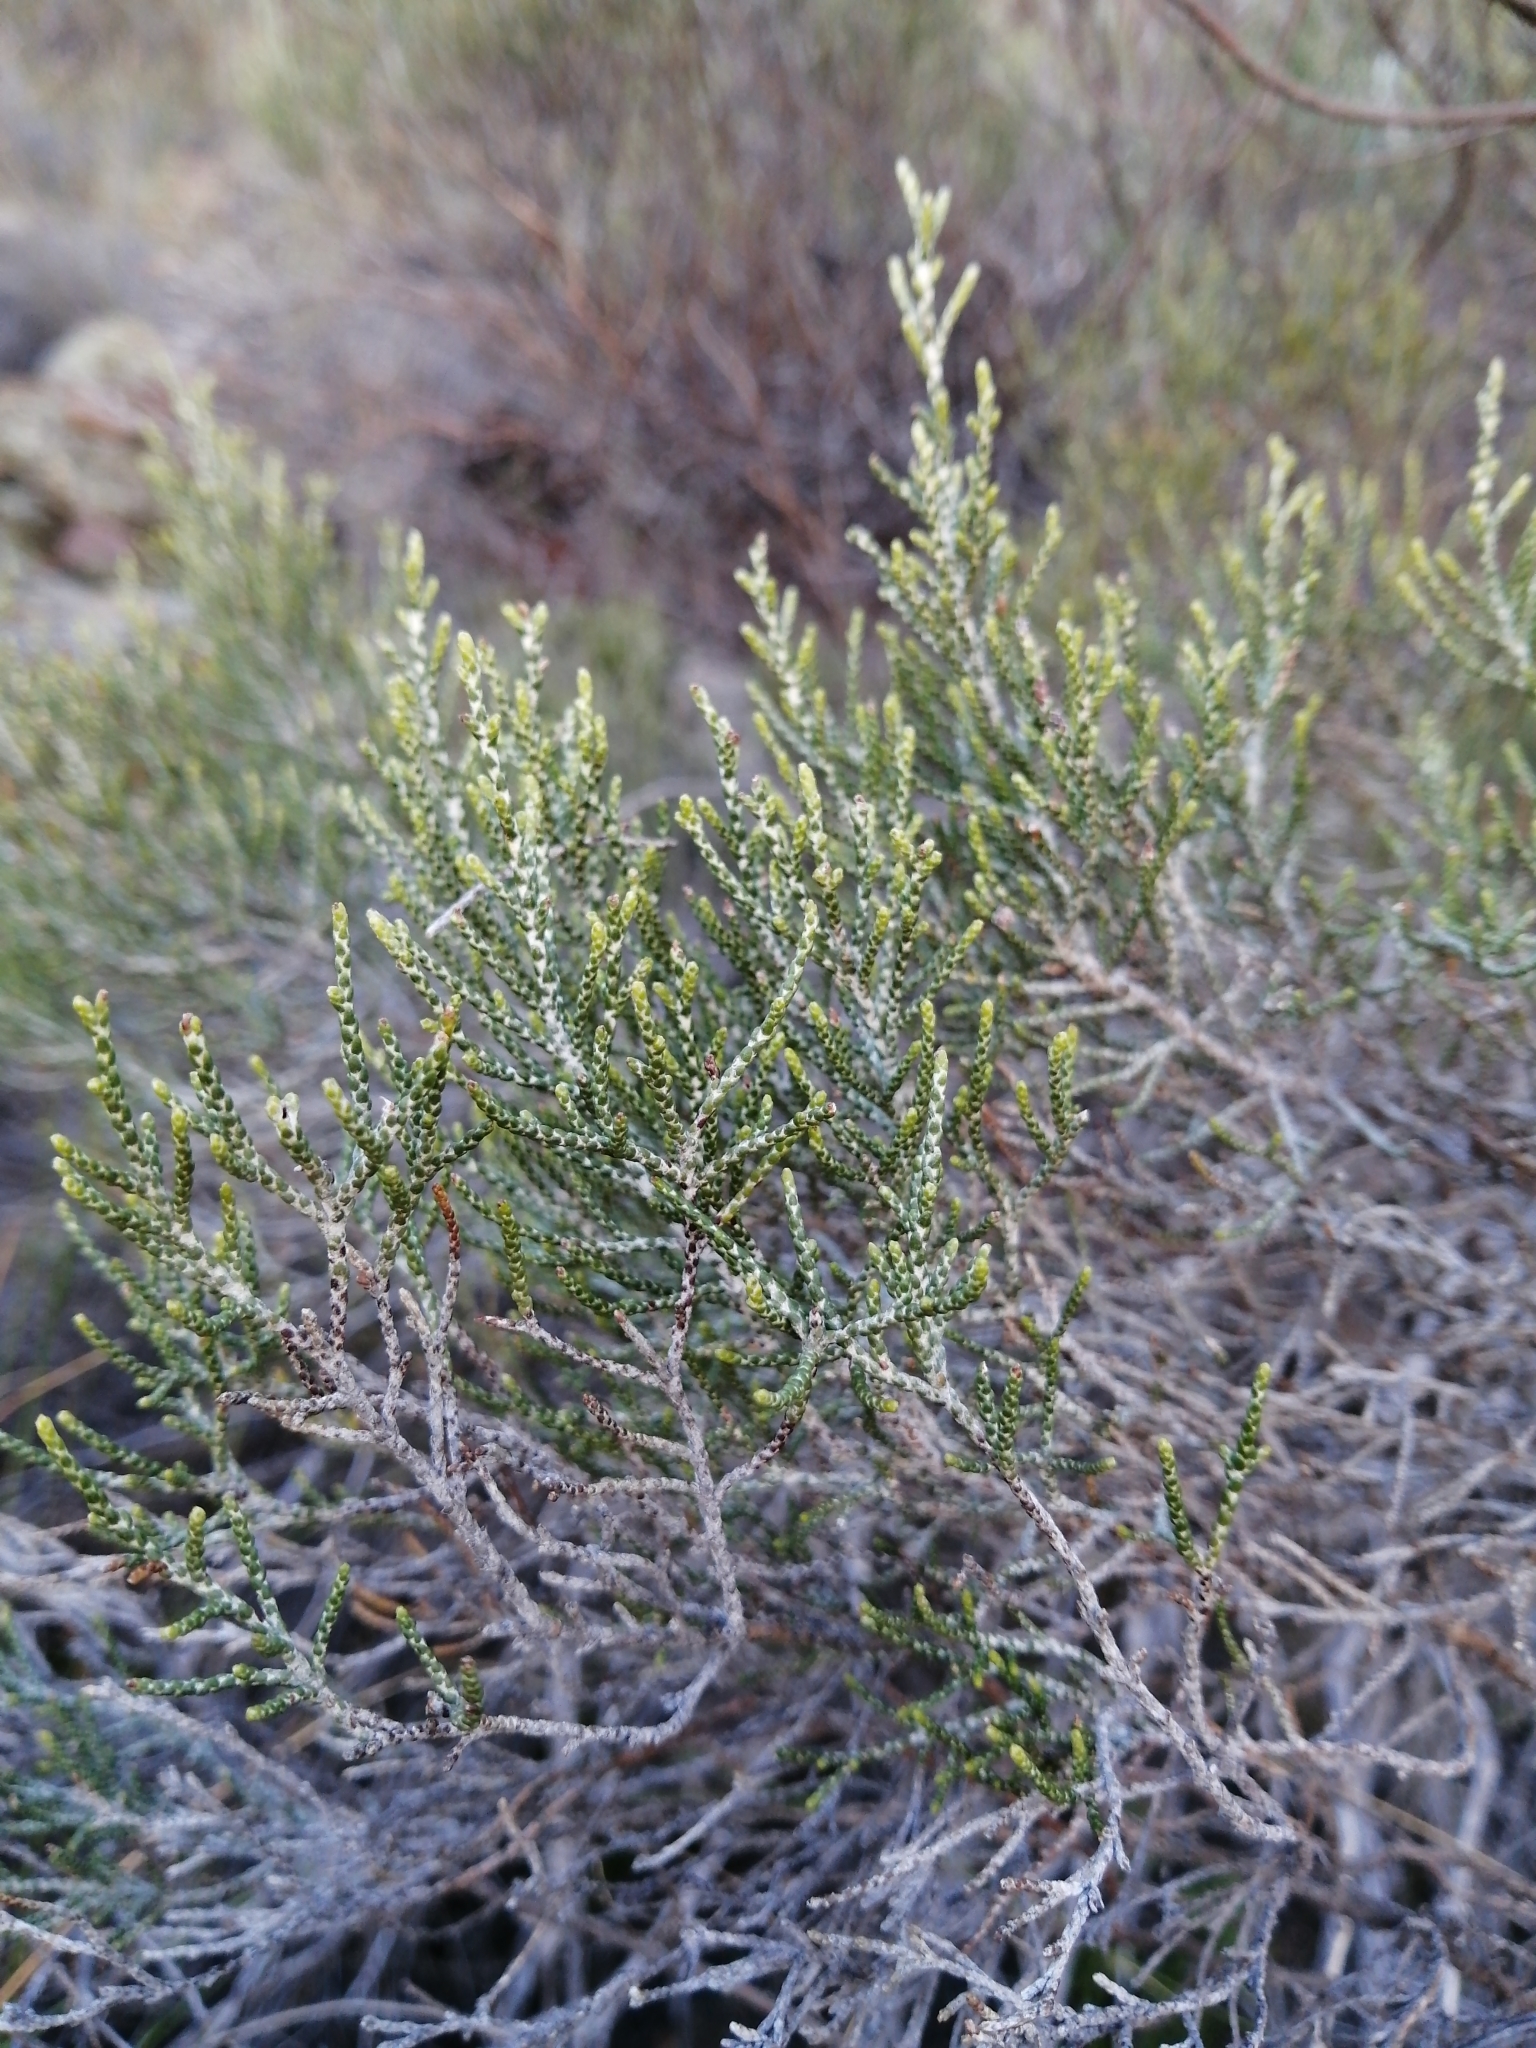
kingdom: Plantae
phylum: Tracheophyta
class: Magnoliopsida
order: Asterales
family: Asteraceae
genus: Dicerothamnus
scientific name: Dicerothamnus rhinocerotis
